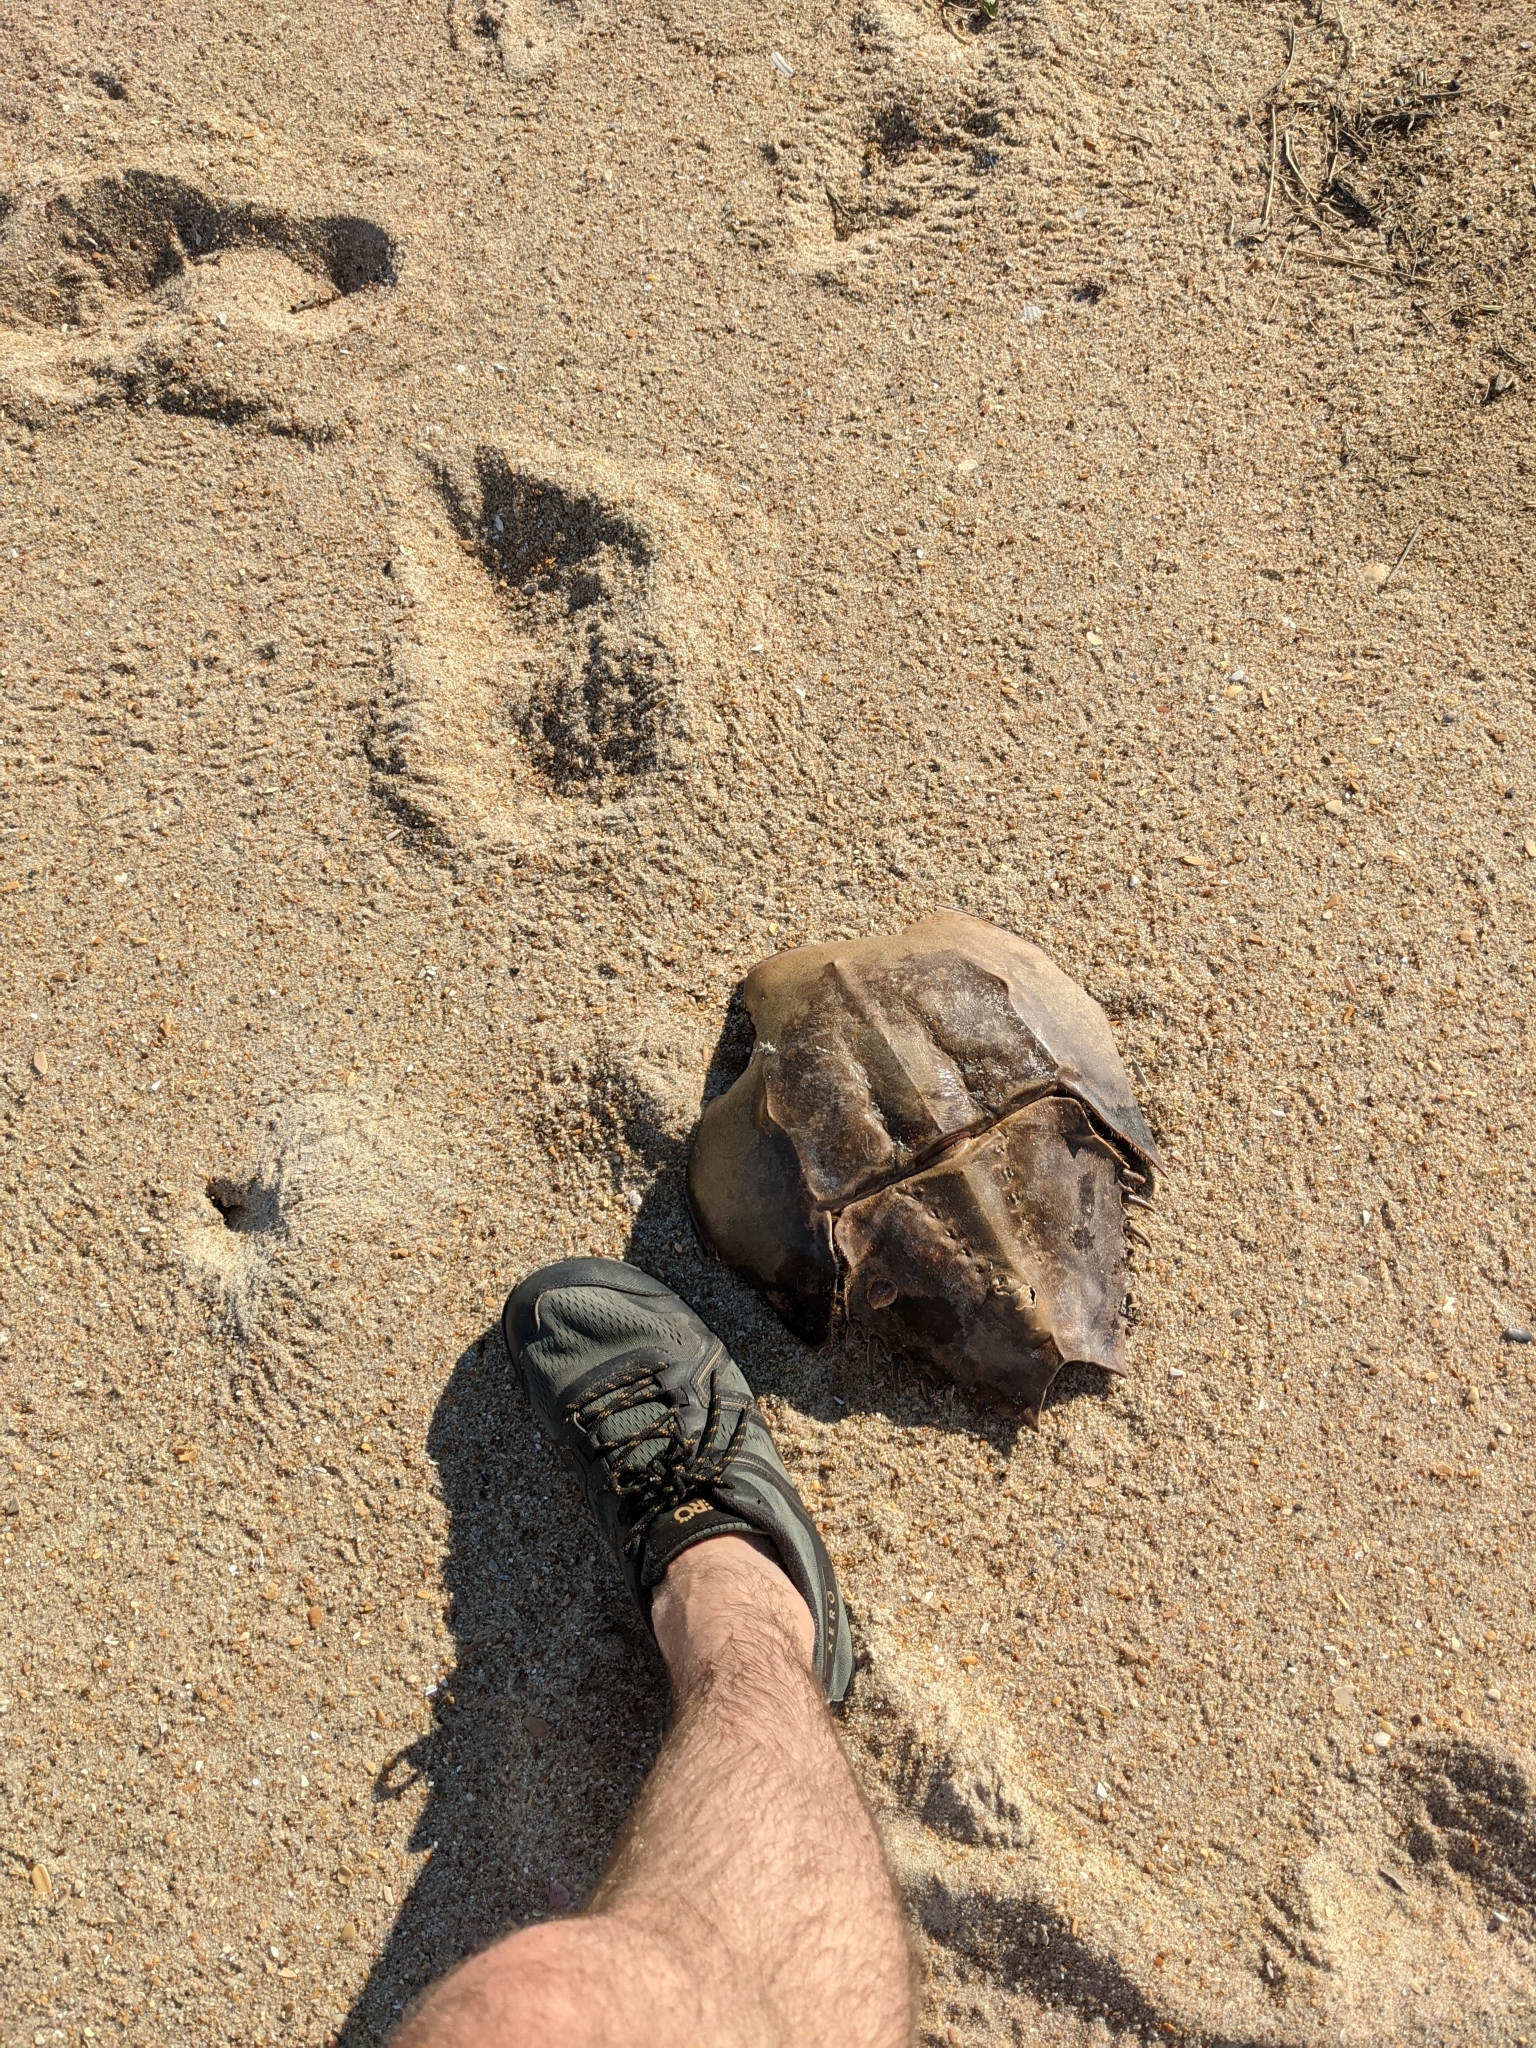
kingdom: Animalia
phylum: Arthropoda
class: Merostomata
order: Xiphosurida
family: Limulidae
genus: Limulus
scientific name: Limulus polyphemus
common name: Horseshoe crab
